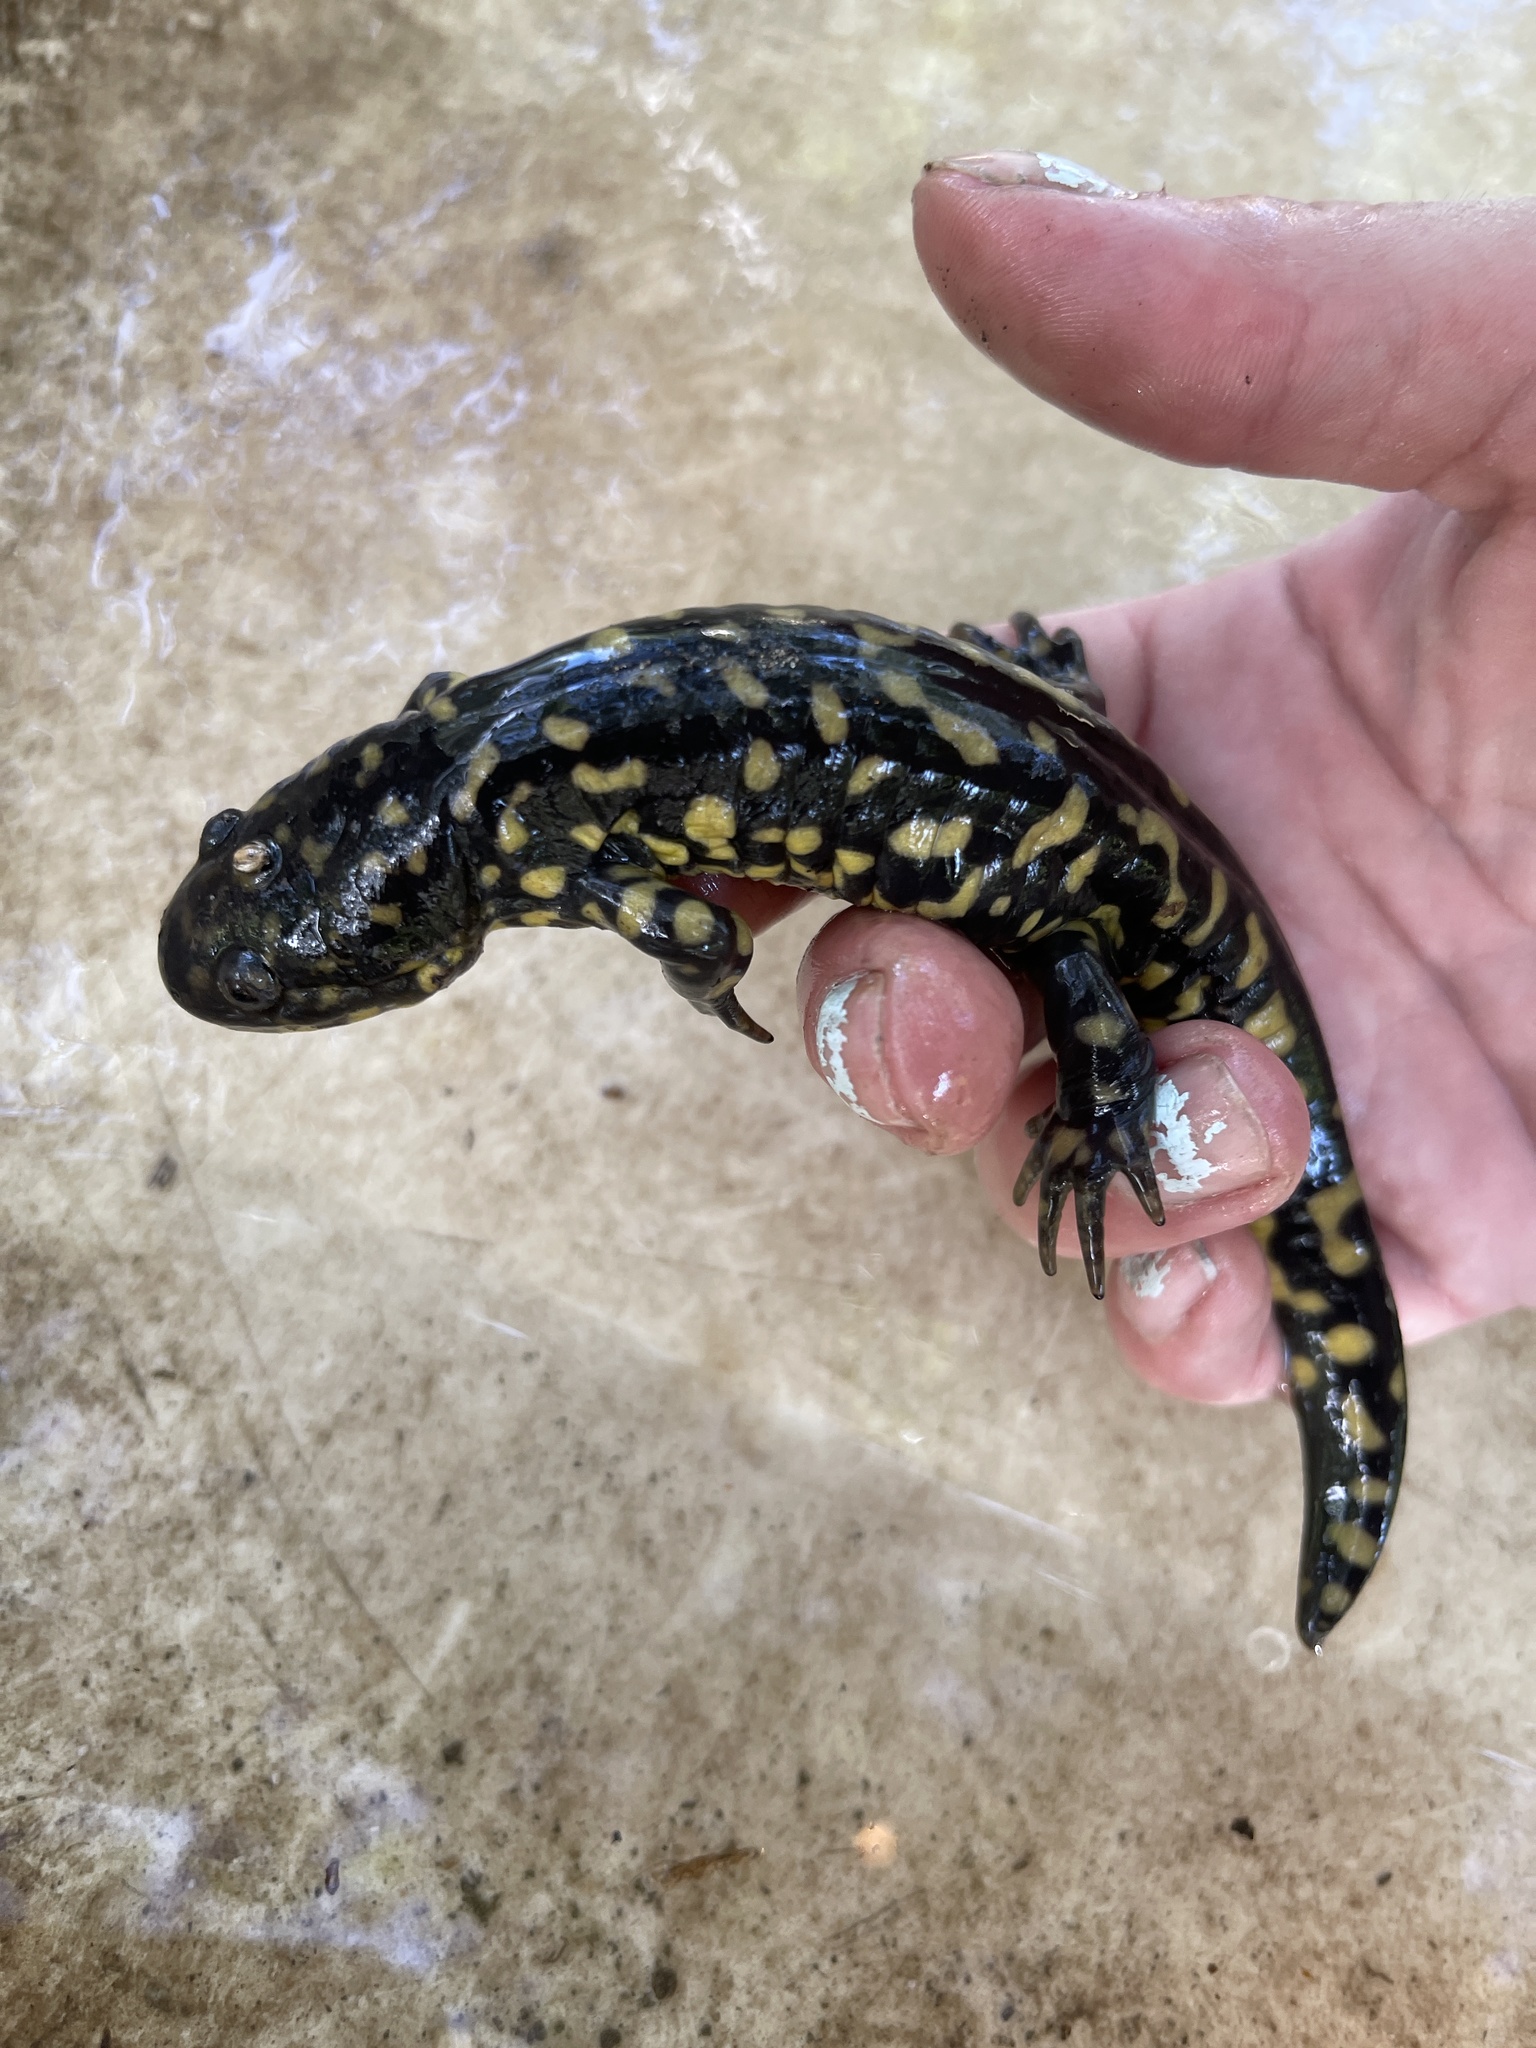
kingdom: Animalia
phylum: Chordata
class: Amphibia
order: Caudata
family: Ambystomatidae
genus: Ambystoma
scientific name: Ambystoma tigrinum
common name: Tiger salamander
